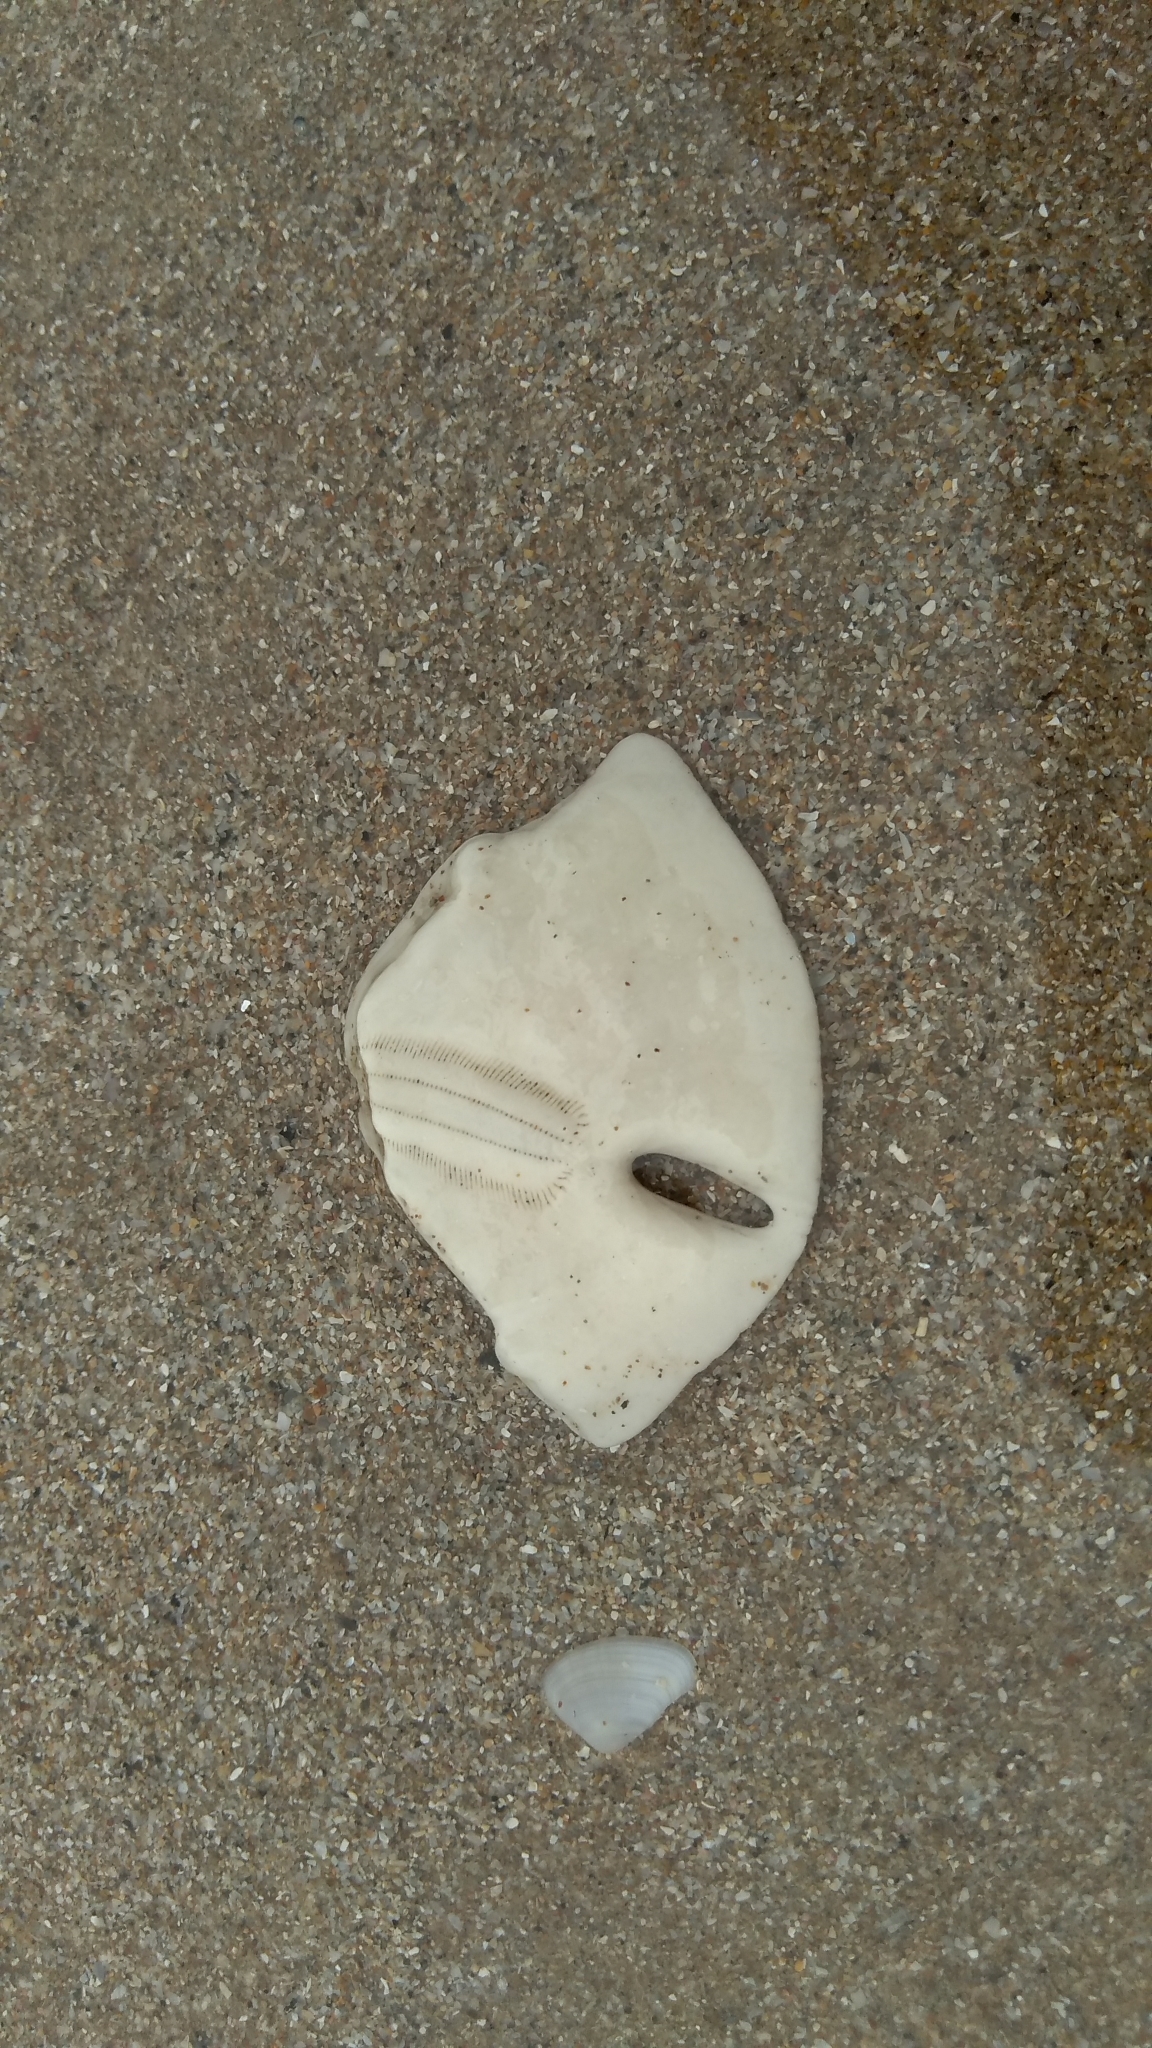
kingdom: Animalia
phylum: Echinodermata
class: Echinoidea
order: Echinolampadacea
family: Mellitidae
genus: Mellita
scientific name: Mellita quinquiesperforata
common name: Sand dollar
